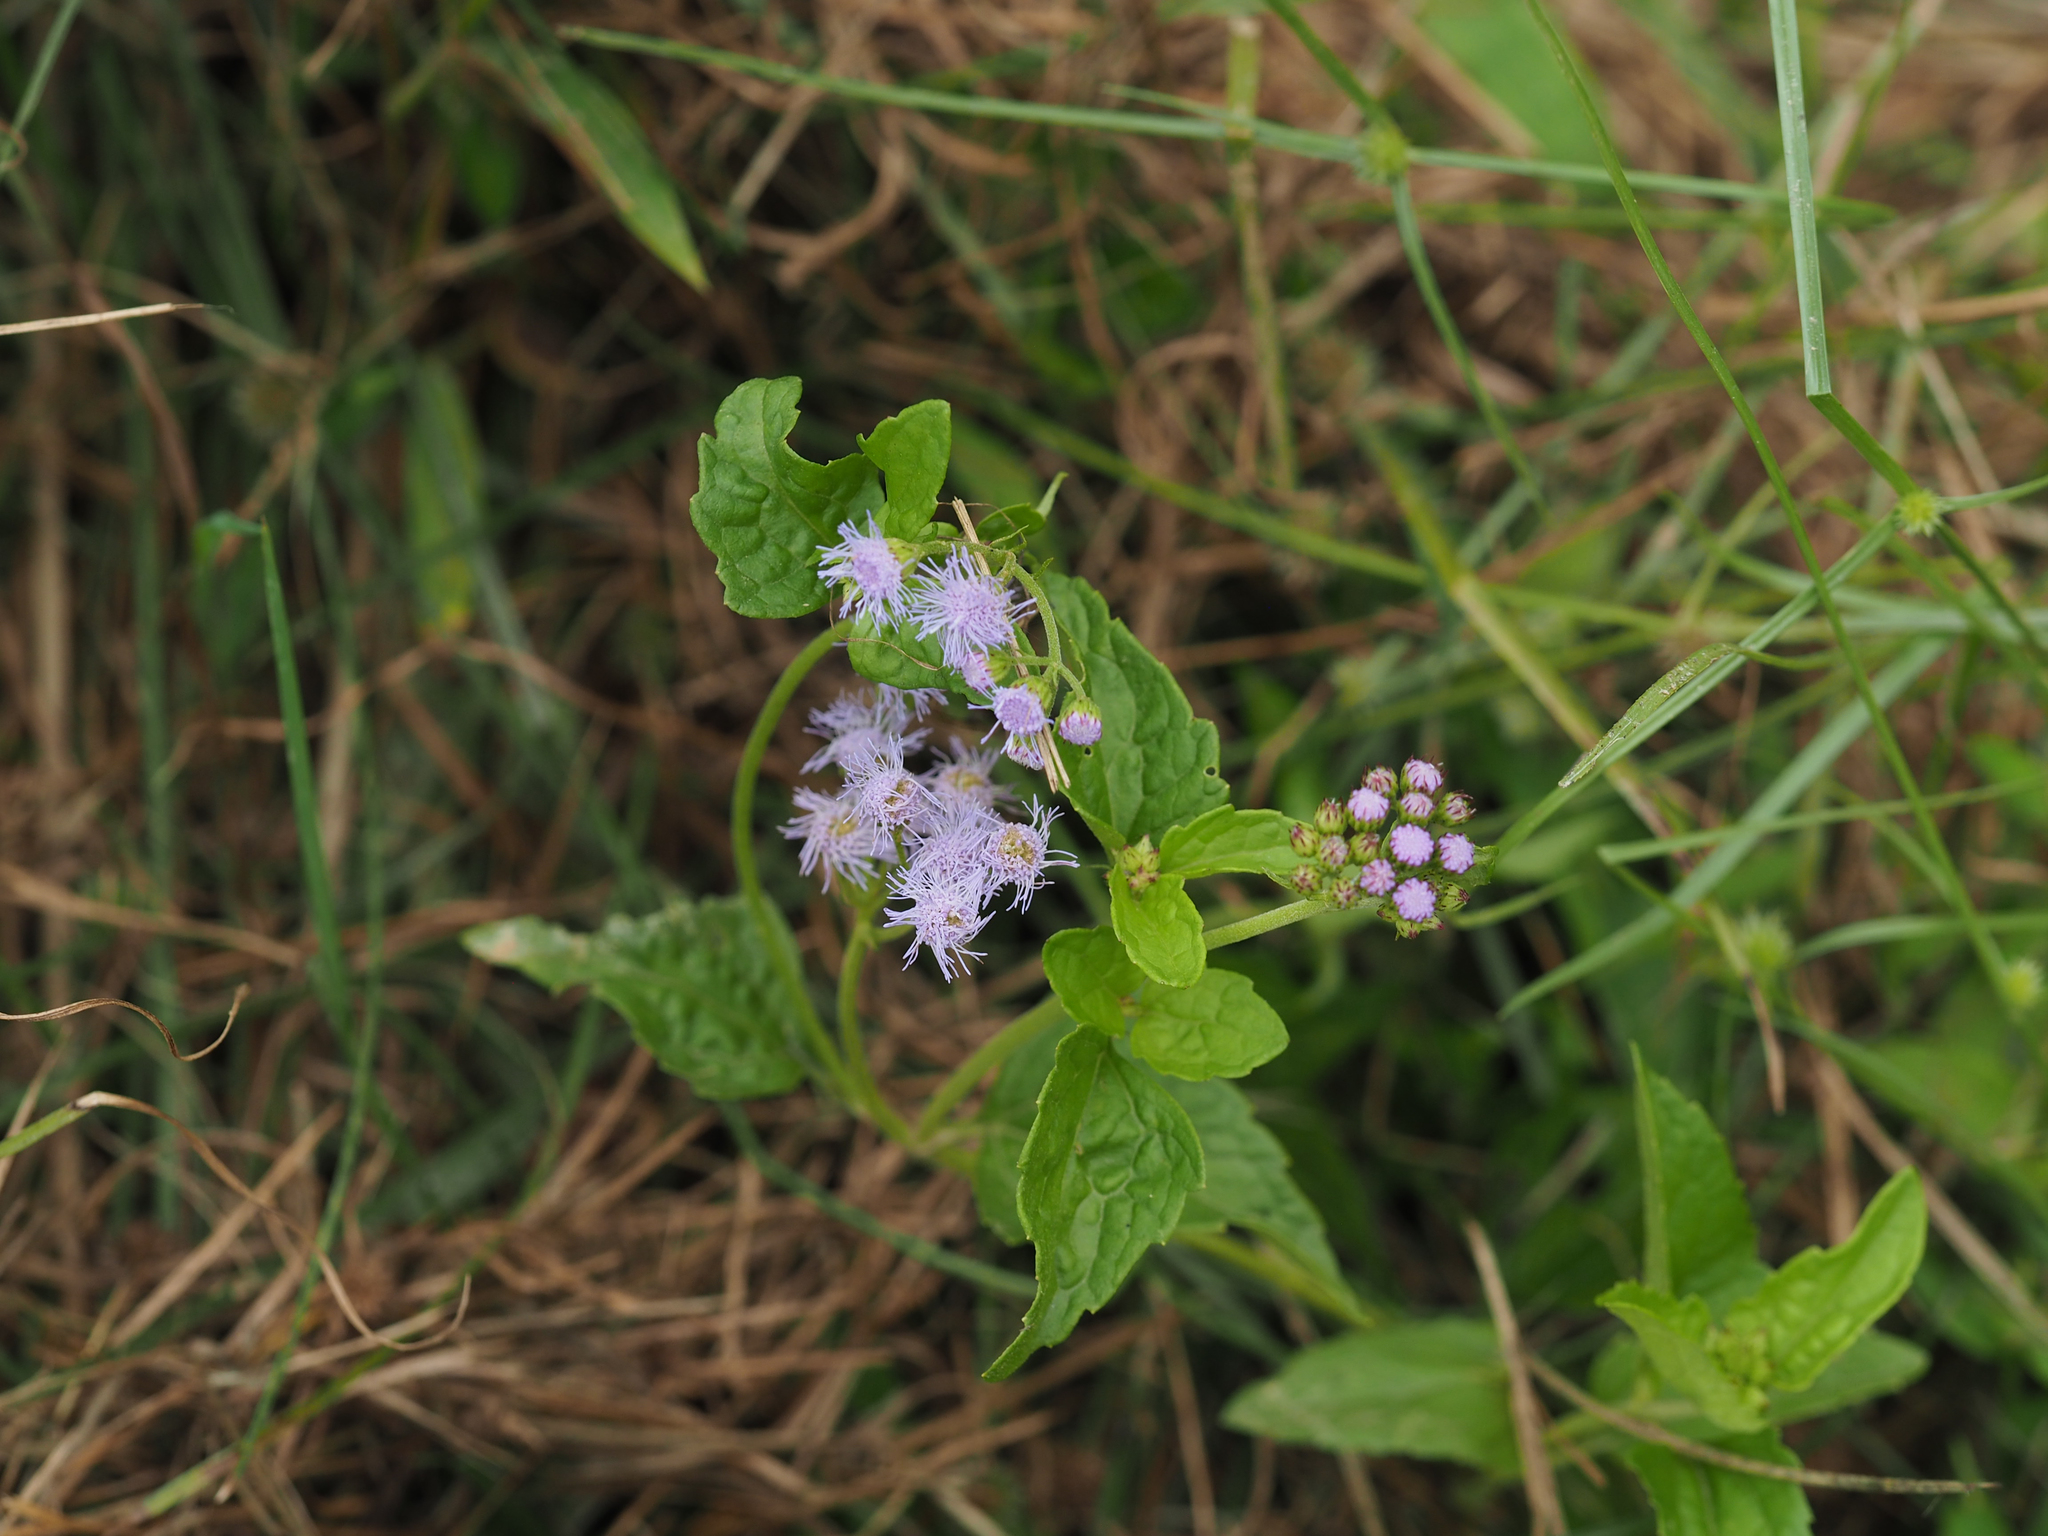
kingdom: Plantae
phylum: Tracheophyta
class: Magnoliopsida
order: Asterales
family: Asteraceae
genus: Conoclinium
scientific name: Conoclinium coelestinum
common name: Blue mistflower
